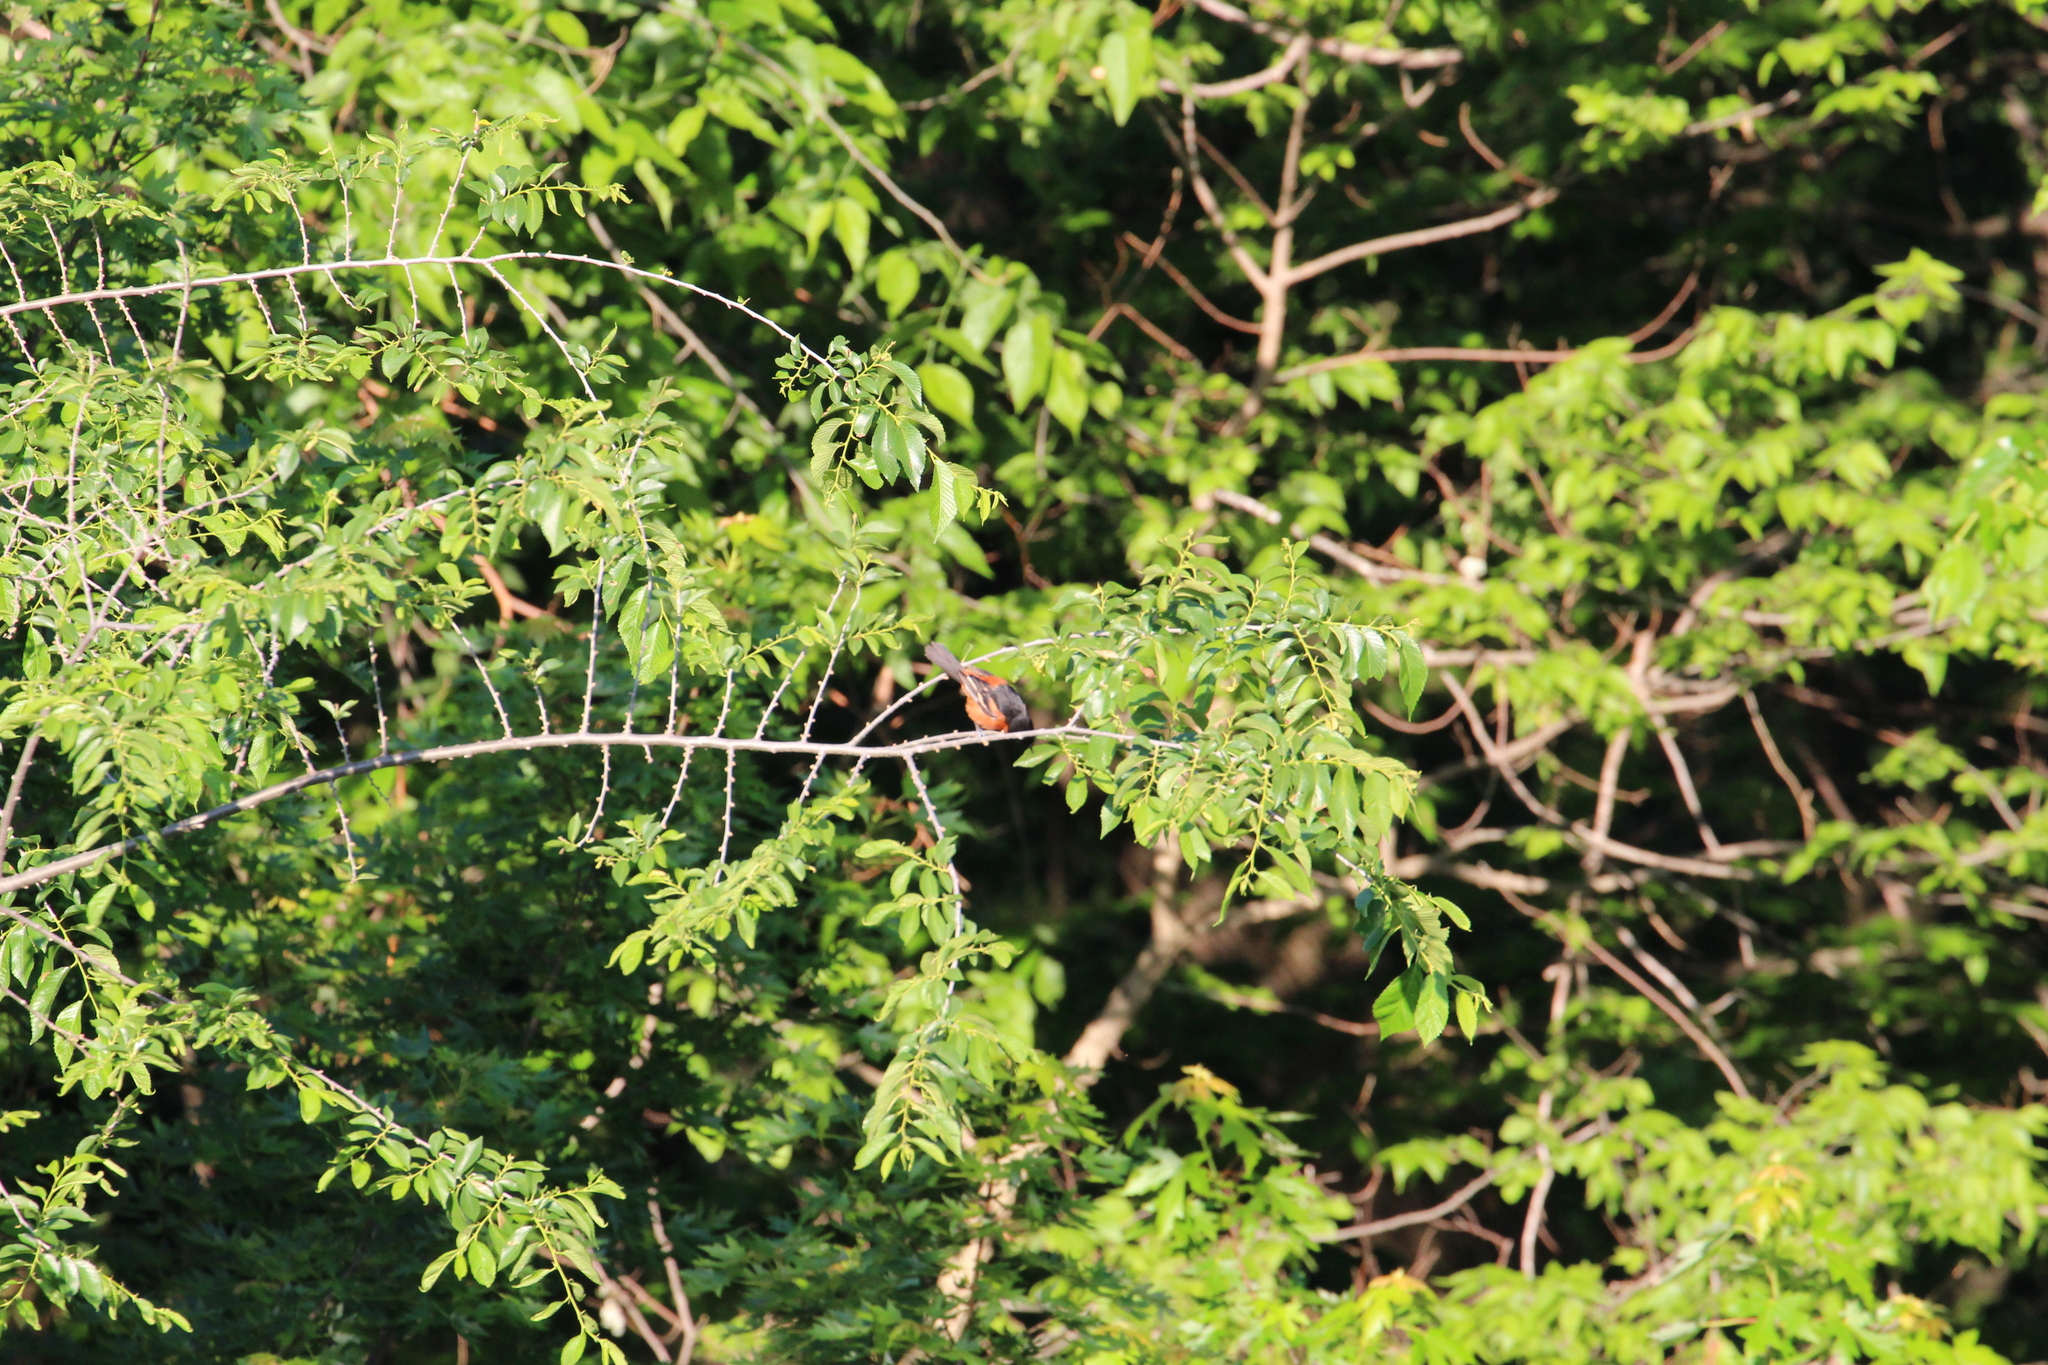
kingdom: Animalia
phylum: Chordata
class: Aves
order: Passeriformes
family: Icteridae
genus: Icterus
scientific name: Icterus spurius
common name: Orchard oriole
